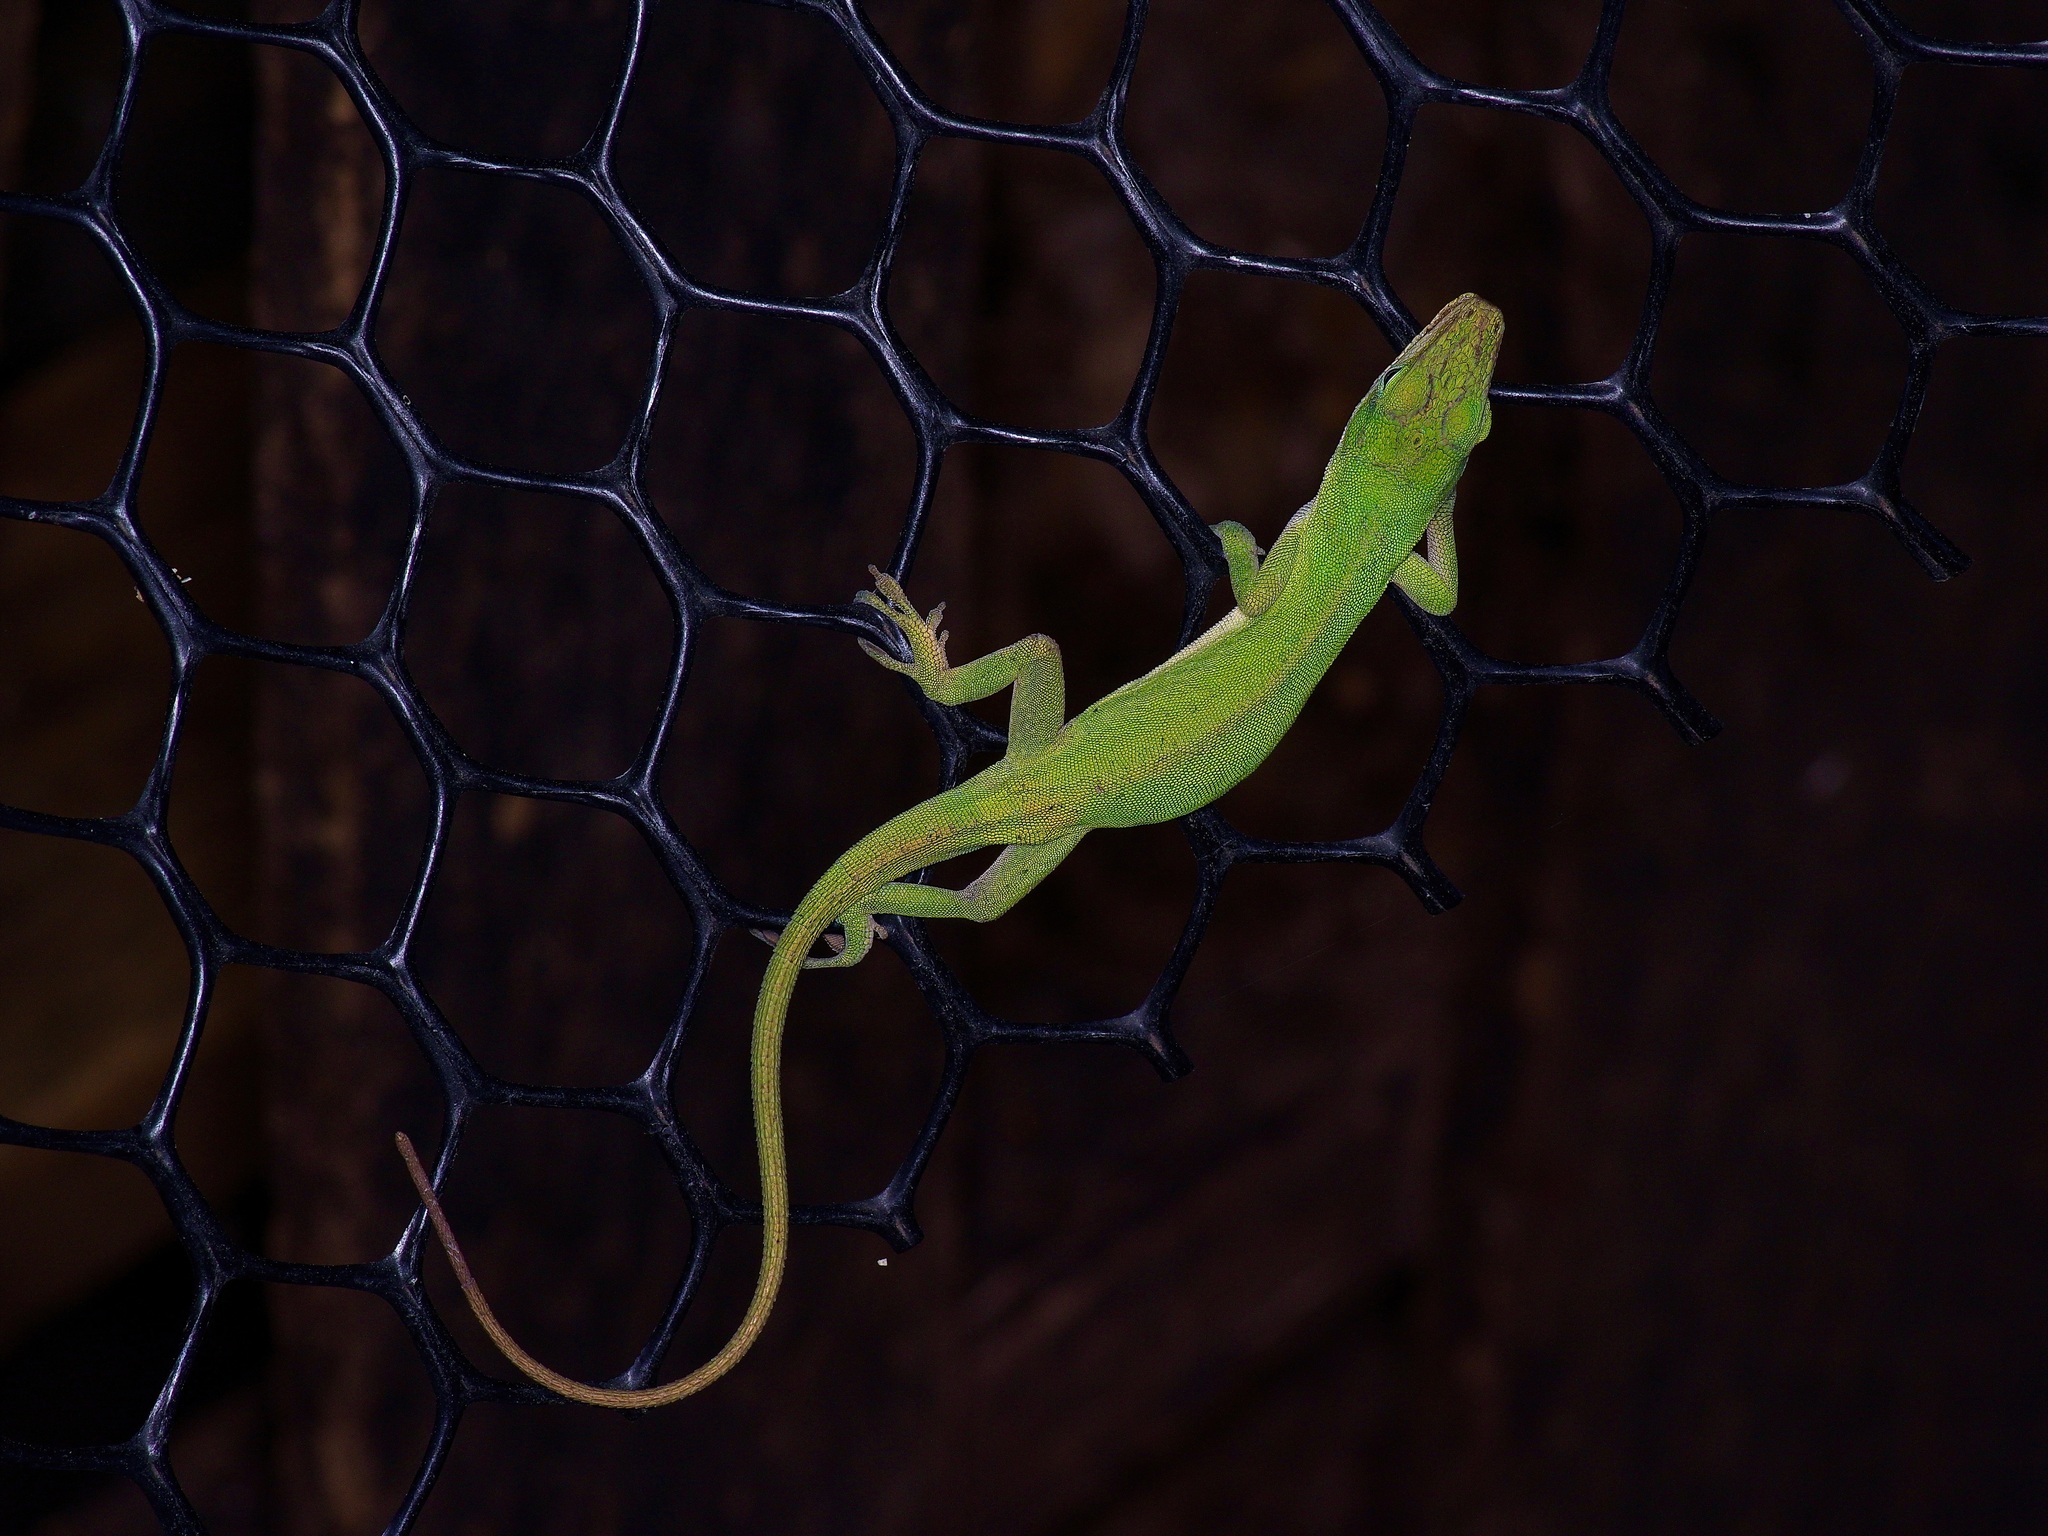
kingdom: Animalia
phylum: Chordata
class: Squamata
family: Dactyloidae
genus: Anolis
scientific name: Anolis carolinensis
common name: Green anole
